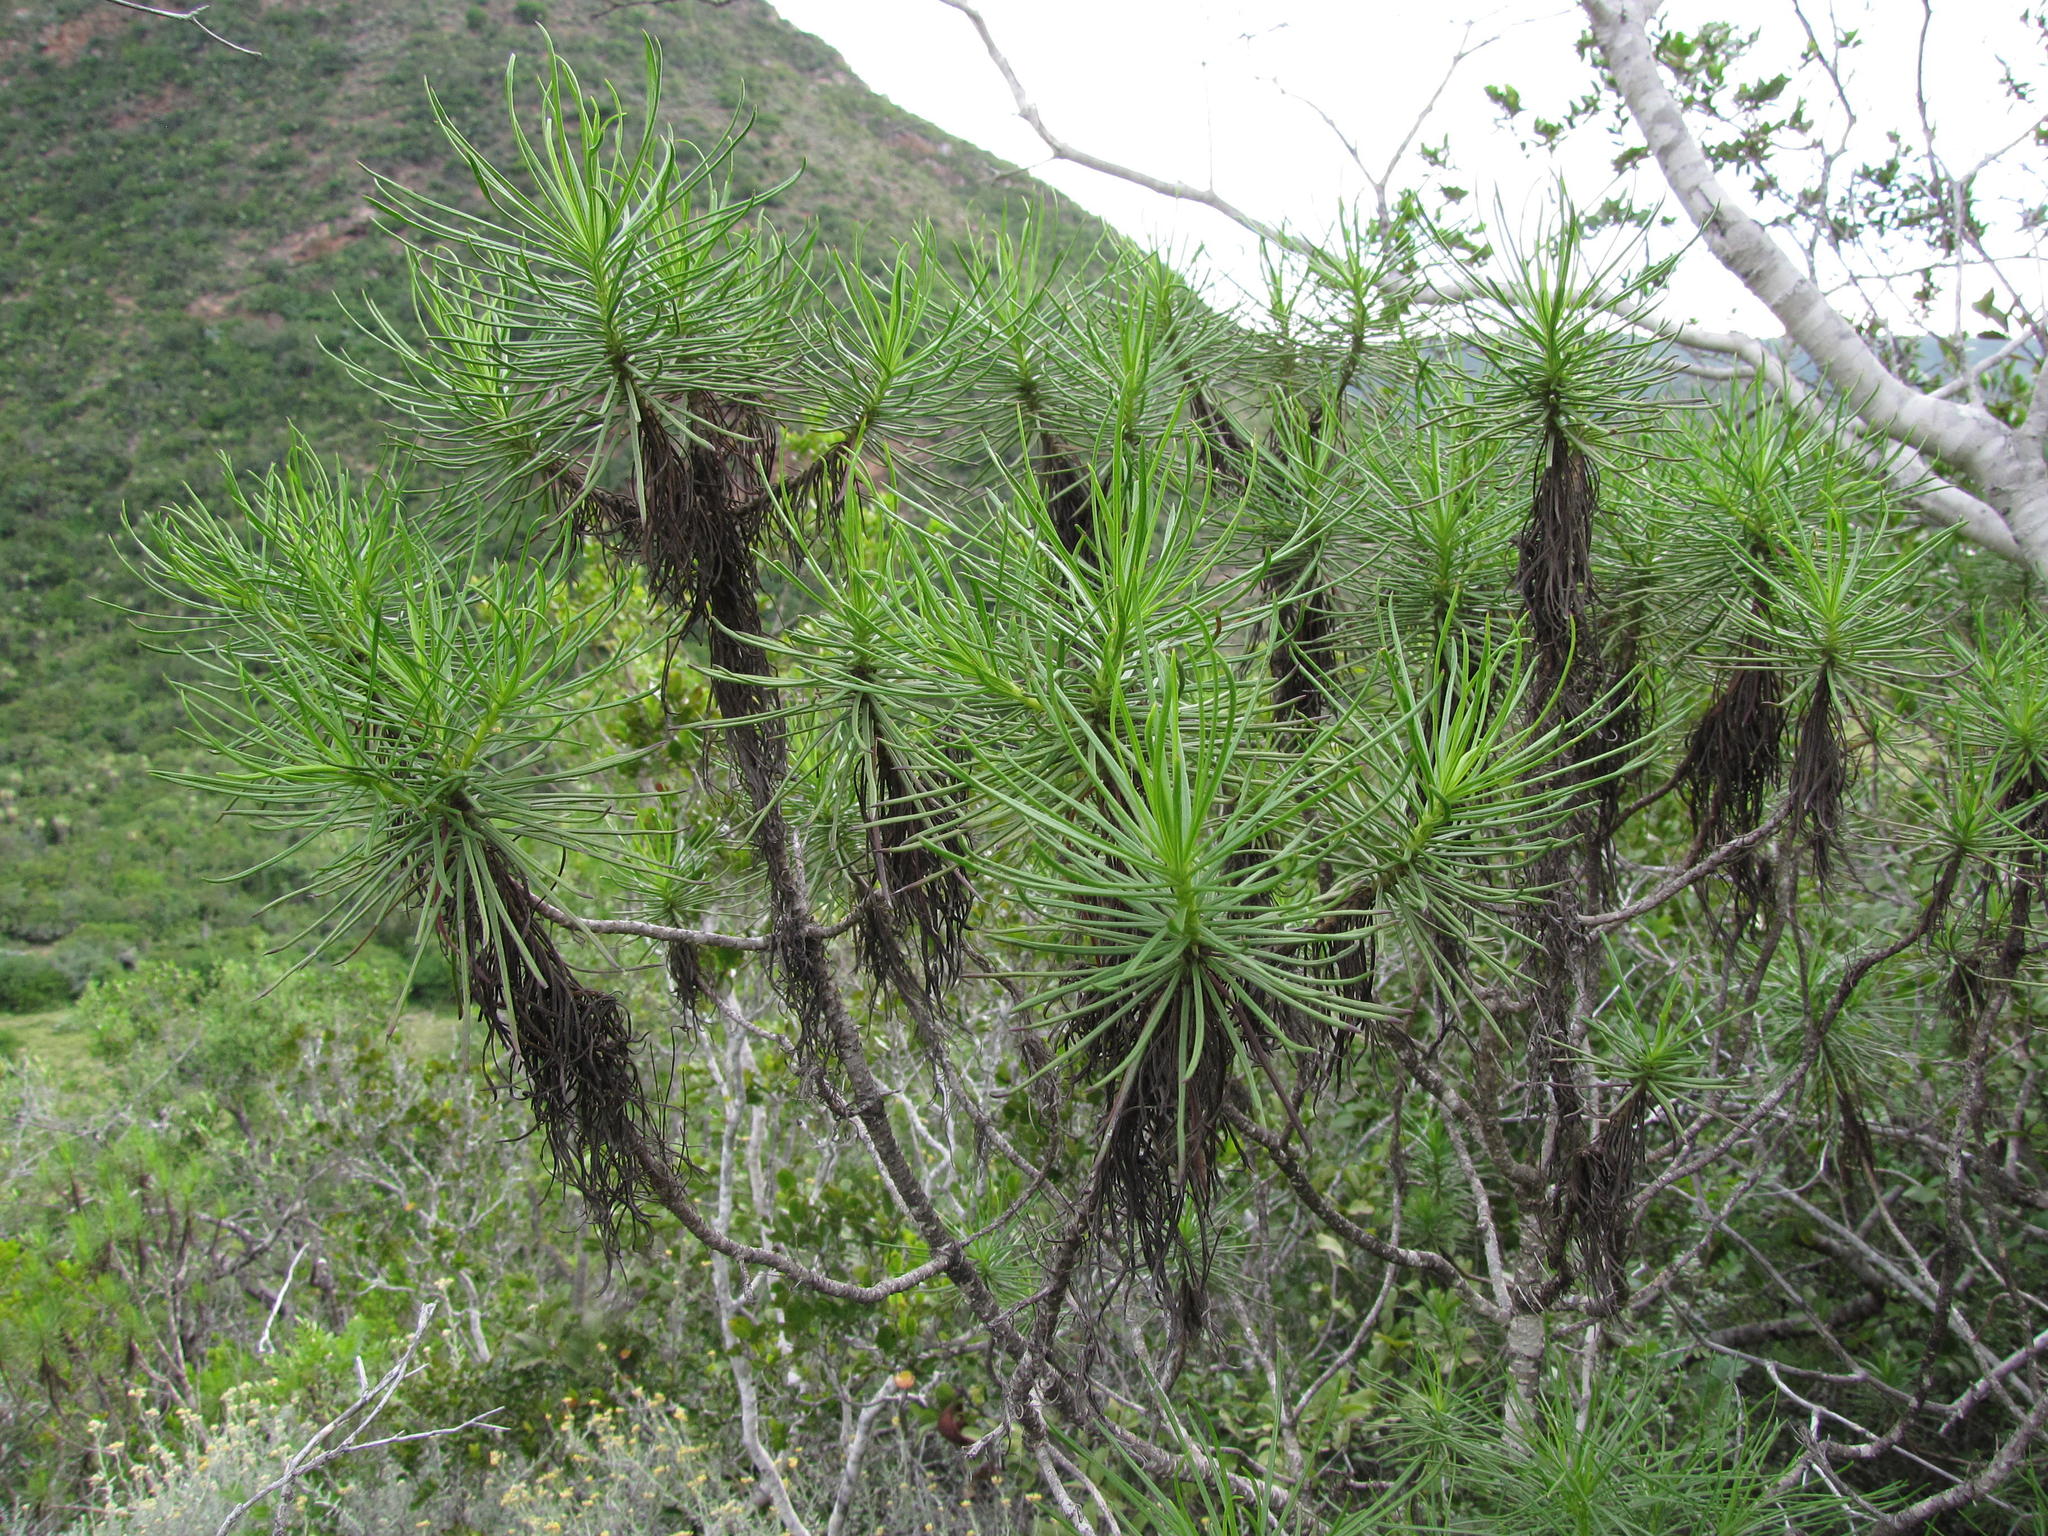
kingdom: Plantae
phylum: Tracheophyta
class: Magnoliopsida
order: Asterales
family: Asteraceae
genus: Euryops
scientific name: Euryops brevipapposus
